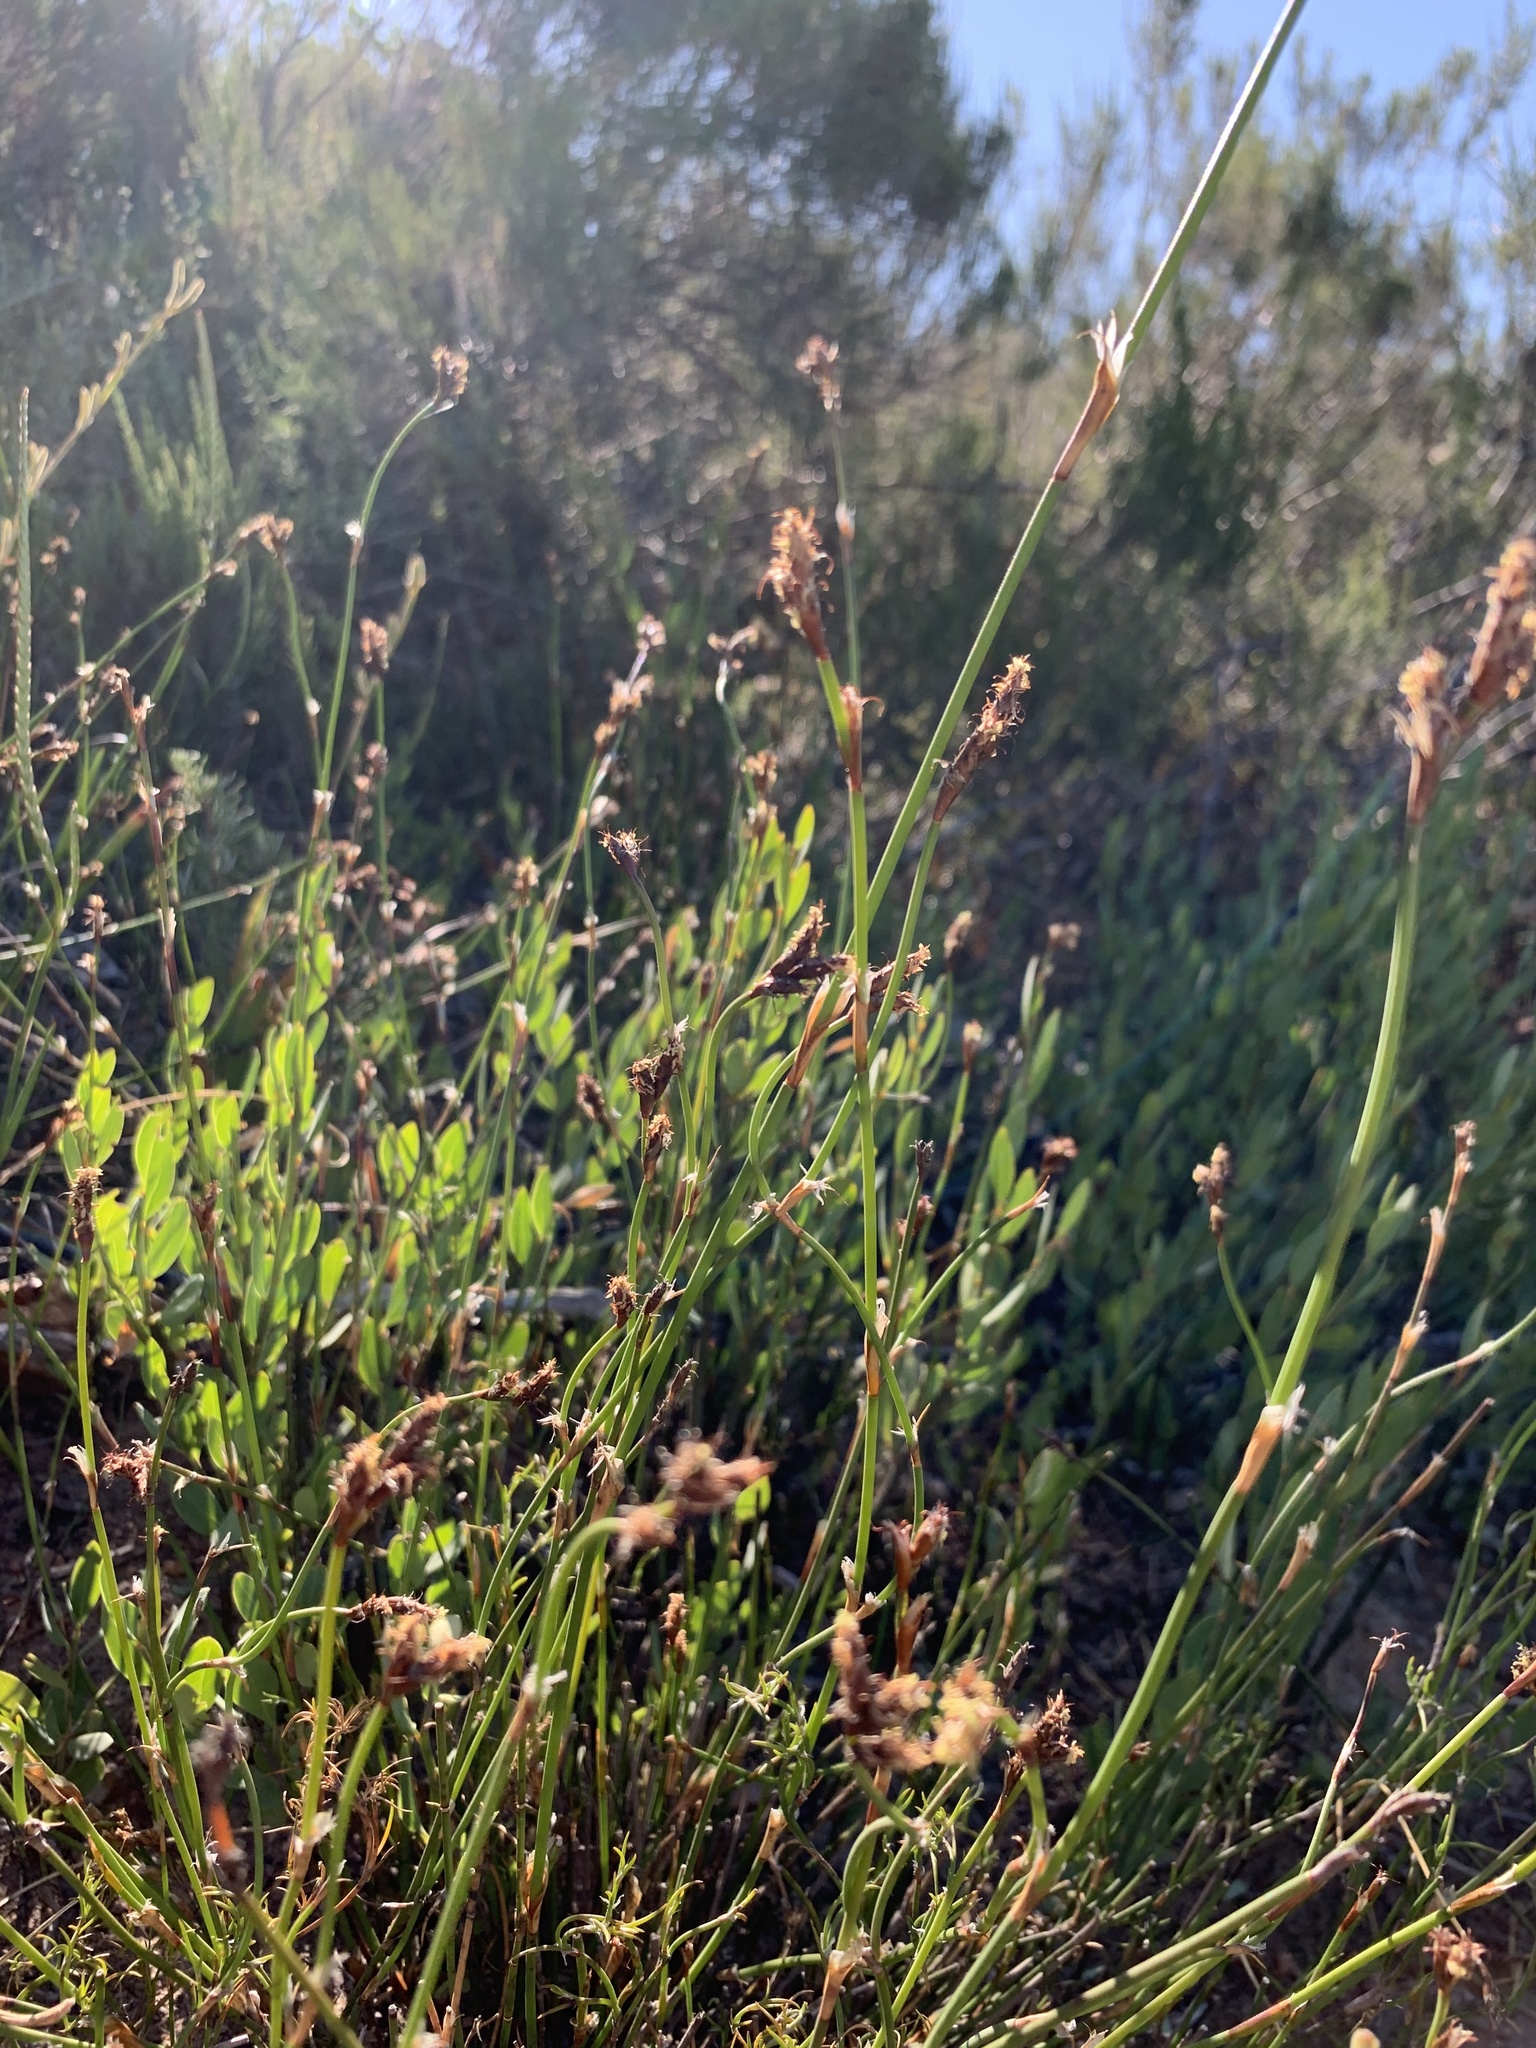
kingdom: Plantae
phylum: Tracheophyta
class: Liliopsida
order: Poales
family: Restionaceae
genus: Restio
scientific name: Restio capensis
